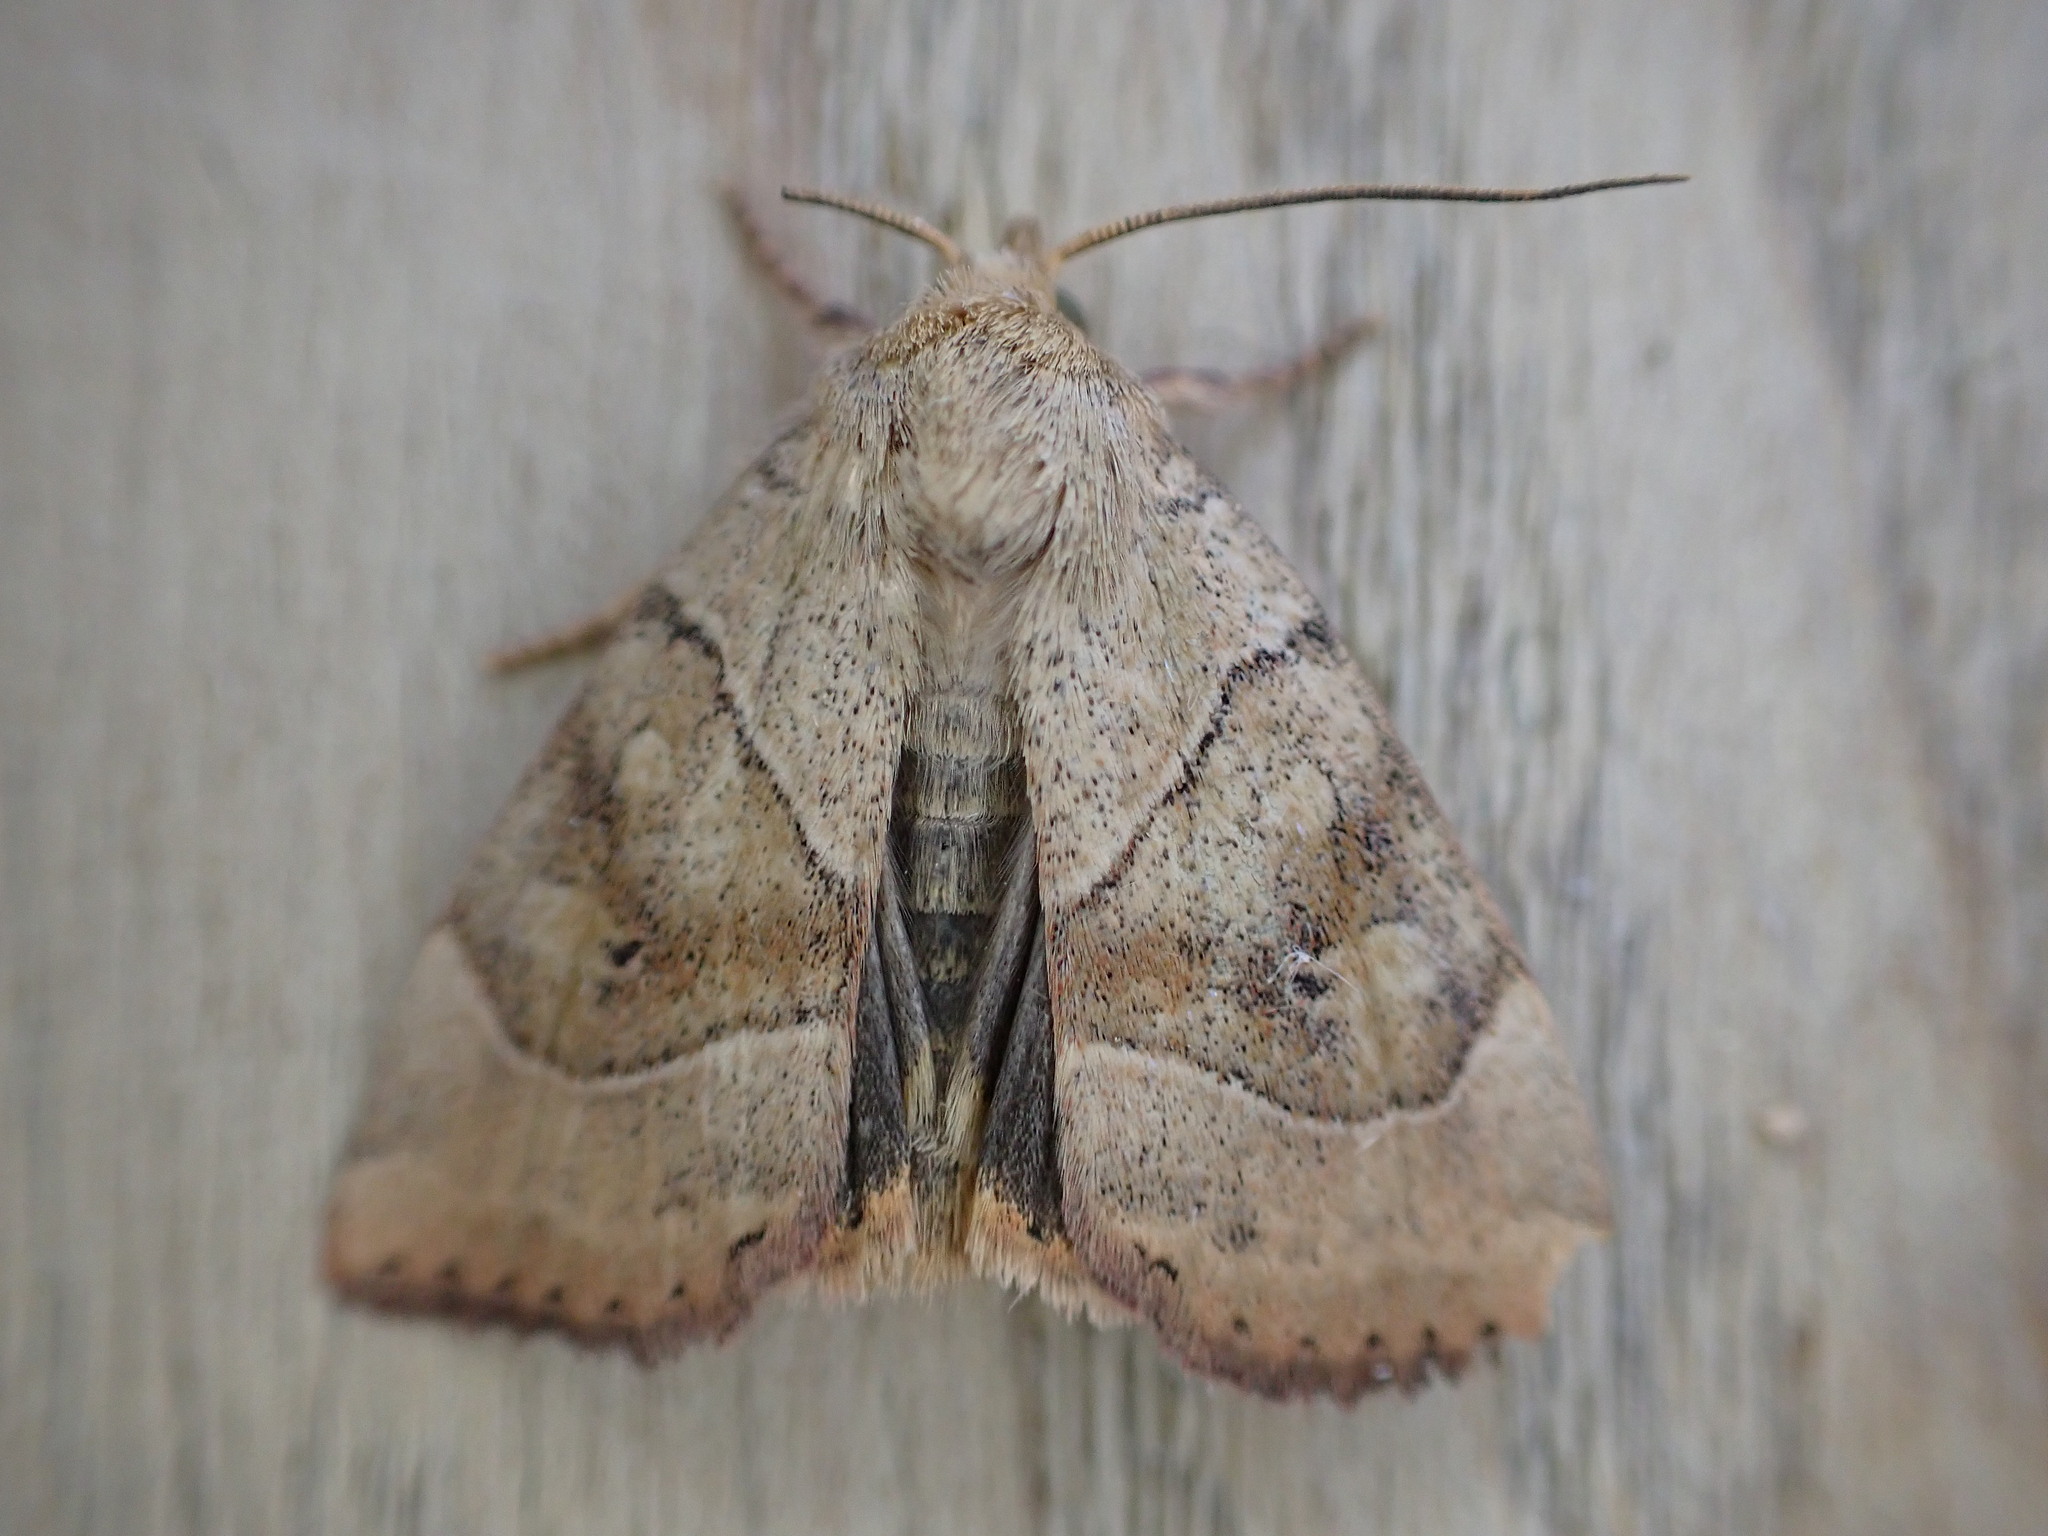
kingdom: Animalia
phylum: Arthropoda
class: Insecta
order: Lepidoptera
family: Noctuidae
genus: Cosmia
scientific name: Cosmia trapezina
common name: Dun-bar
